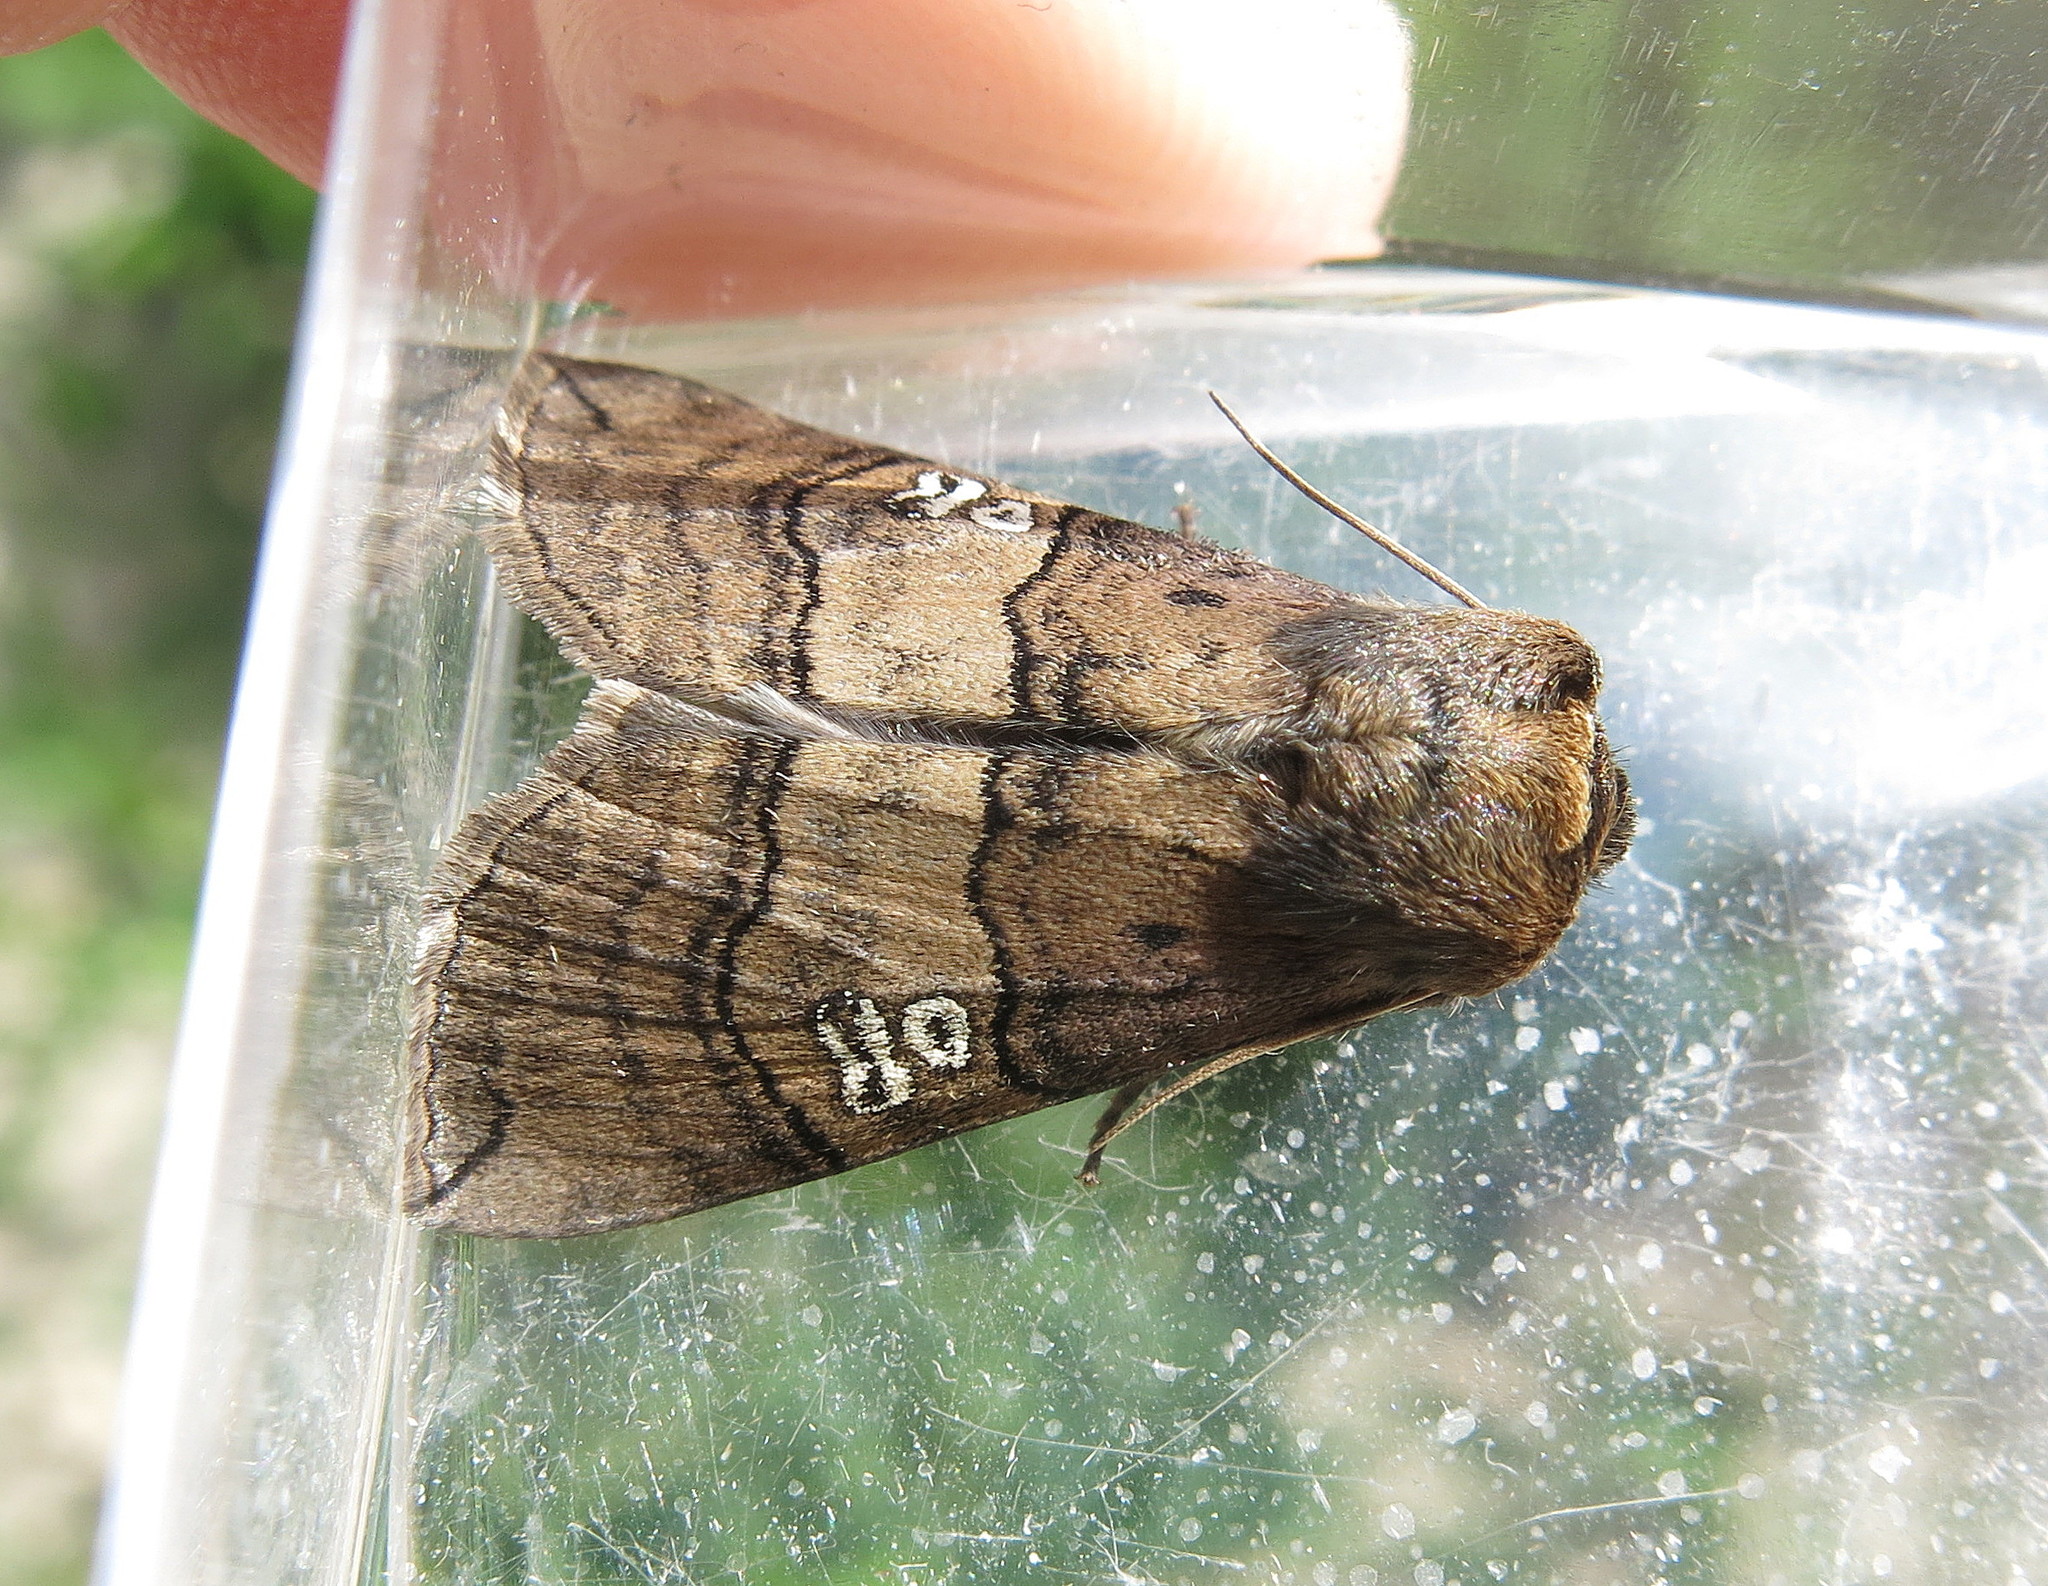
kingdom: Animalia
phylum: Arthropoda
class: Insecta
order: Lepidoptera
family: Drepanidae
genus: Tethea
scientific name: Tethea ocularis
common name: Figure of eighty
